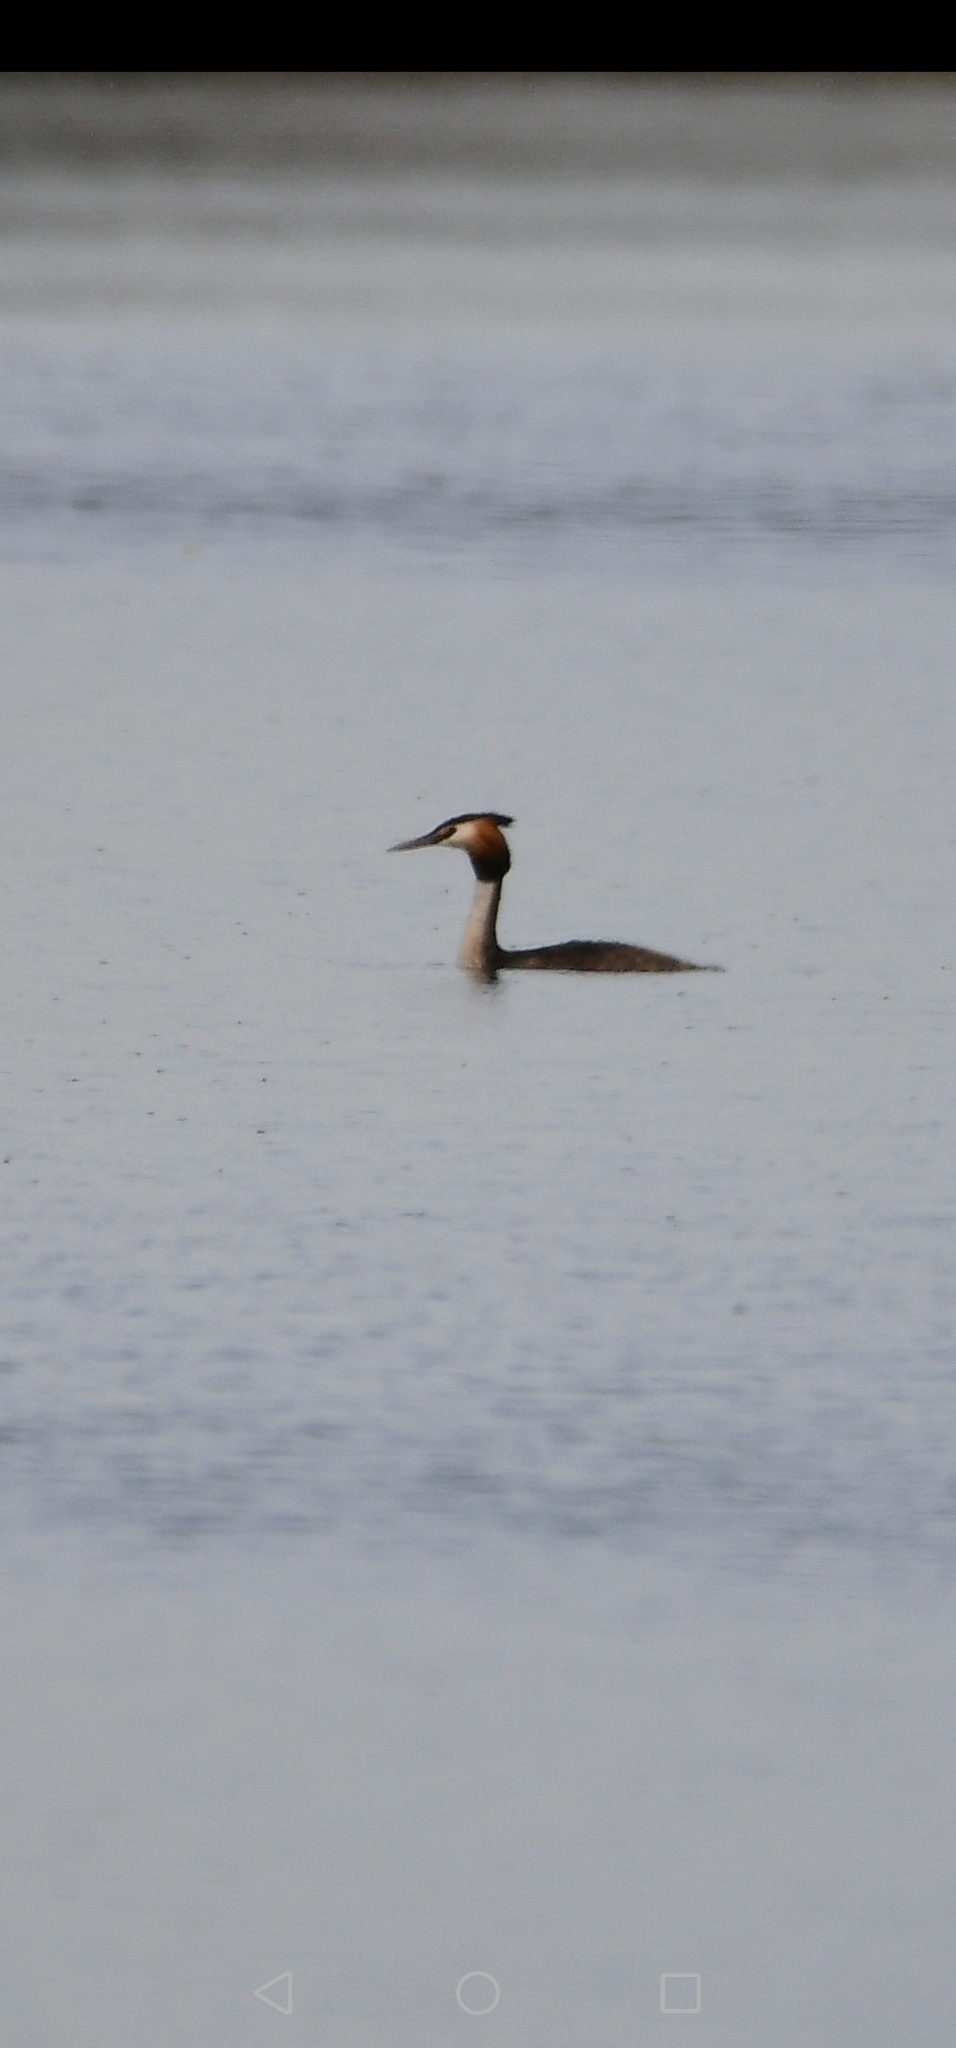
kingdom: Animalia
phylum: Chordata
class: Aves
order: Podicipediformes
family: Podicipedidae
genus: Podiceps
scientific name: Podiceps cristatus
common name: Great crested grebe
